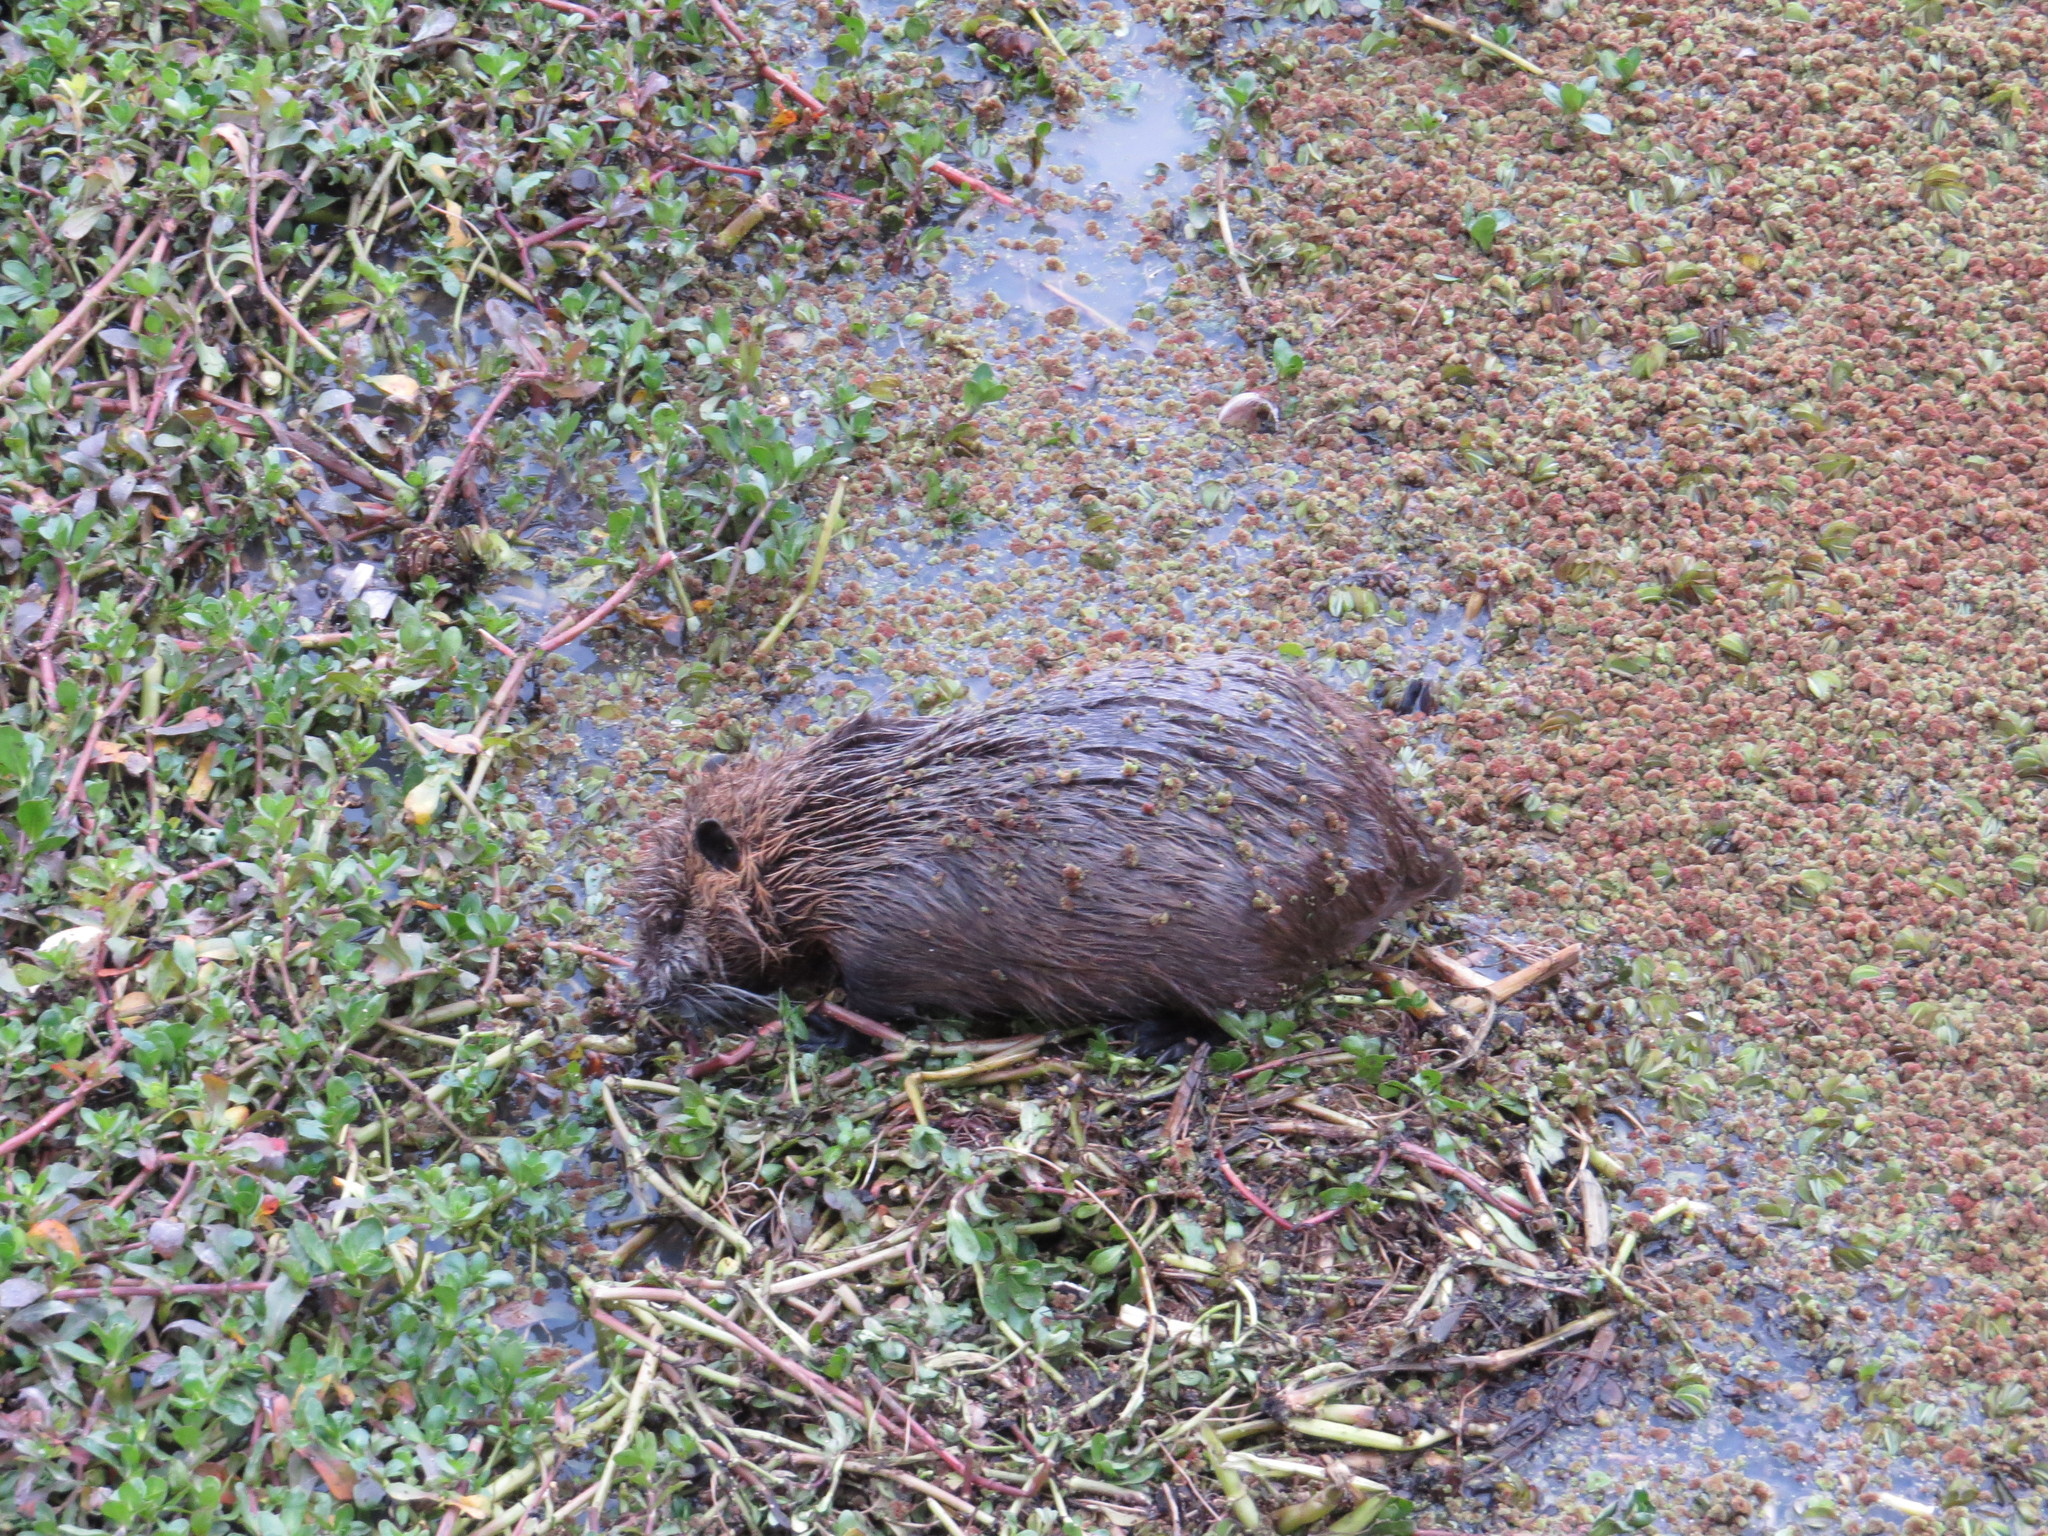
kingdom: Animalia
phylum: Chordata
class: Mammalia
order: Rodentia
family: Myocastoridae
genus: Myocastor
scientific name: Myocastor coypus
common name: Coypu
